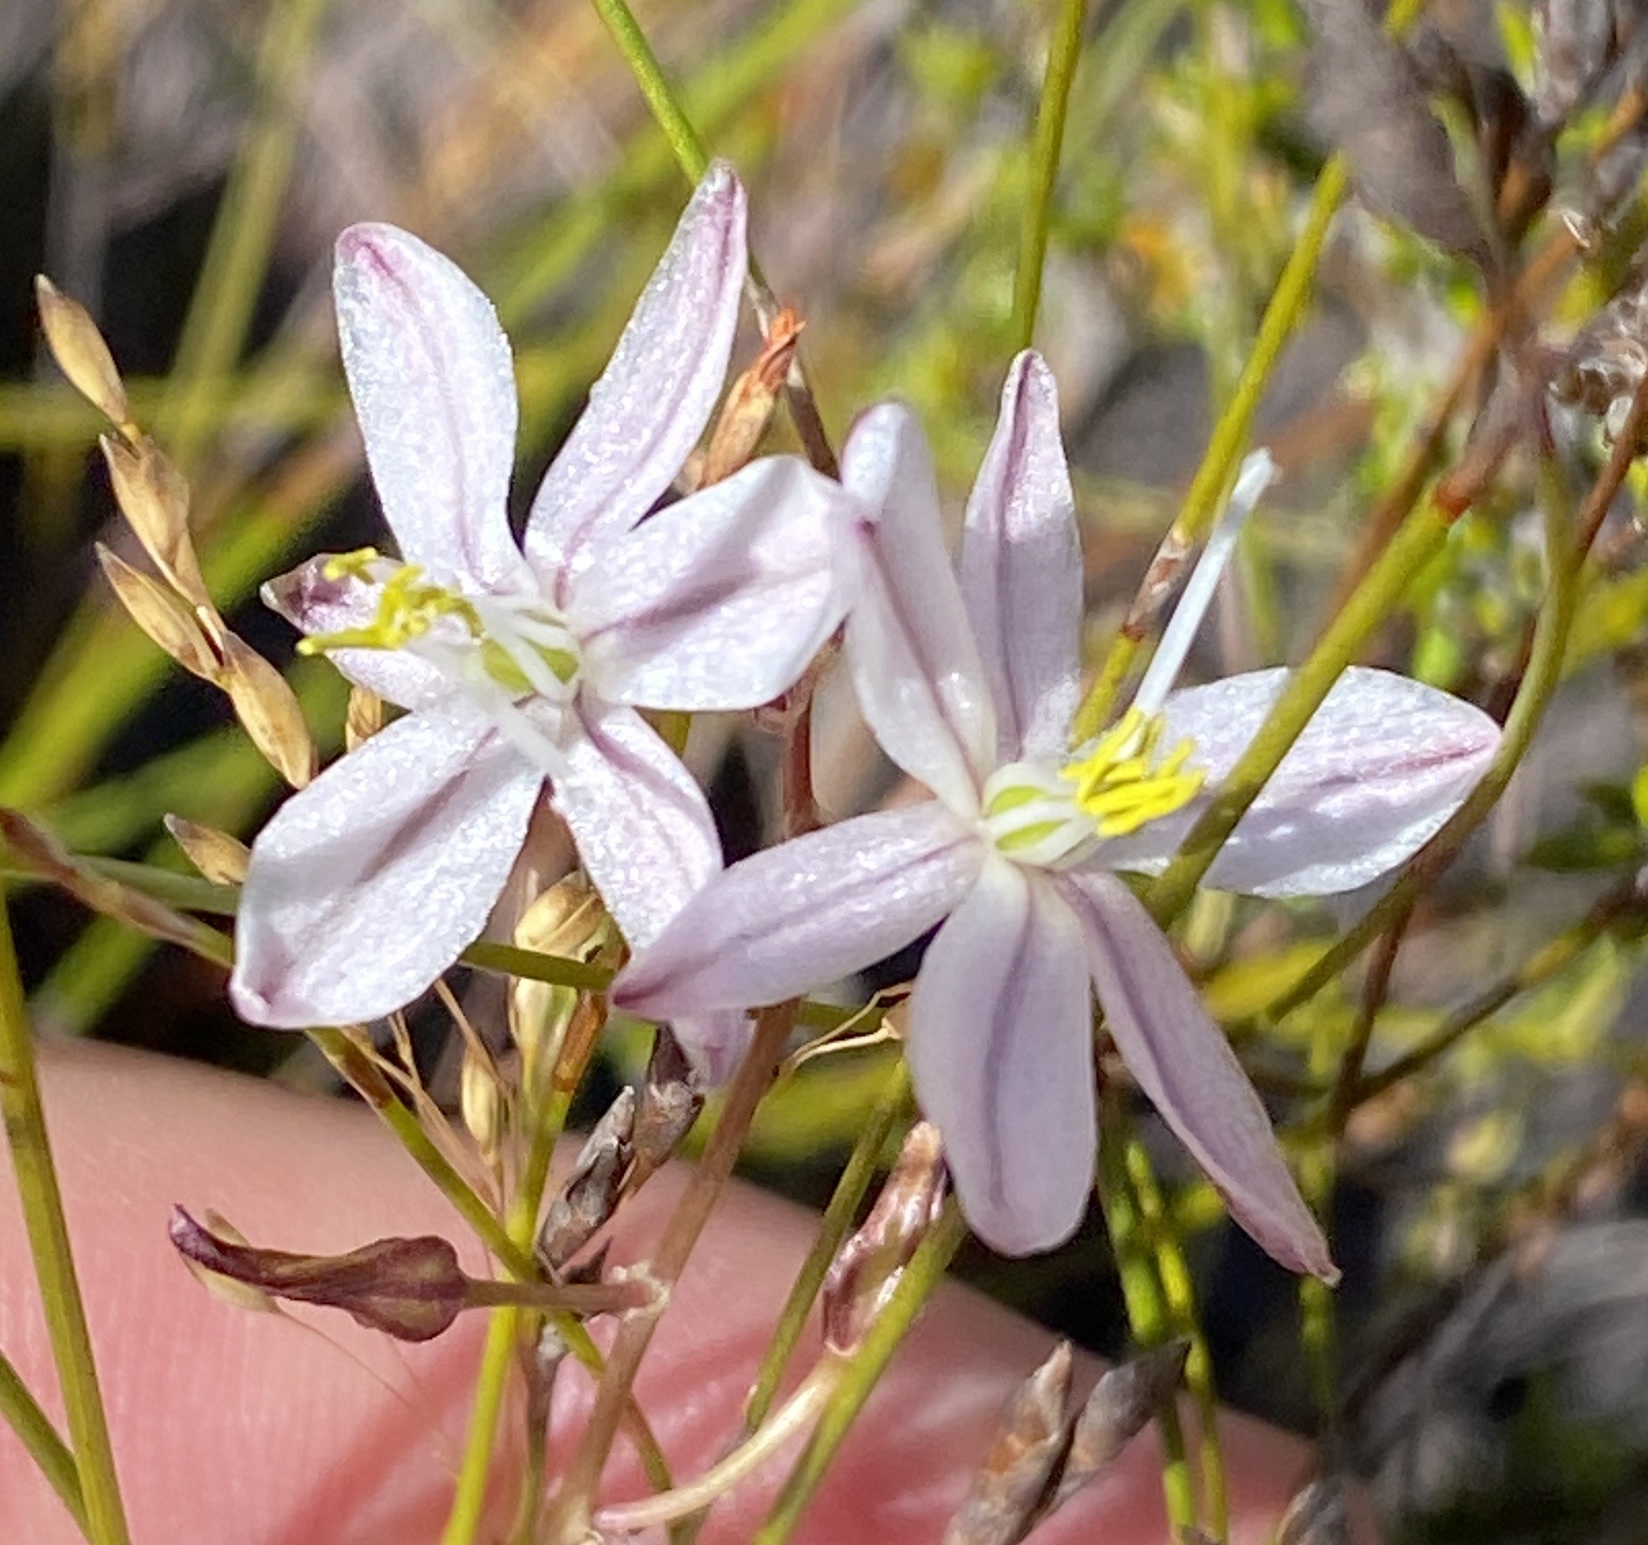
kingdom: Plantae
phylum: Tracheophyta
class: Liliopsida
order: Asparagales
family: Asparagaceae
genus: Drimia
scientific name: Drimia exuviata
